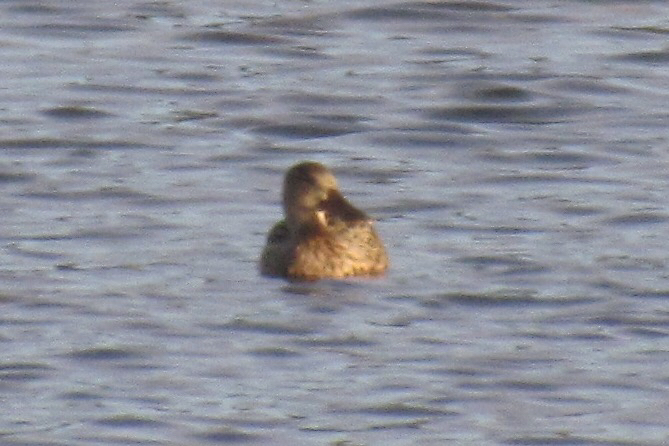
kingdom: Animalia
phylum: Chordata
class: Aves
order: Anseriformes
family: Anatidae
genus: Spatula
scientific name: Spatula clypeata
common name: Northern shoveler
